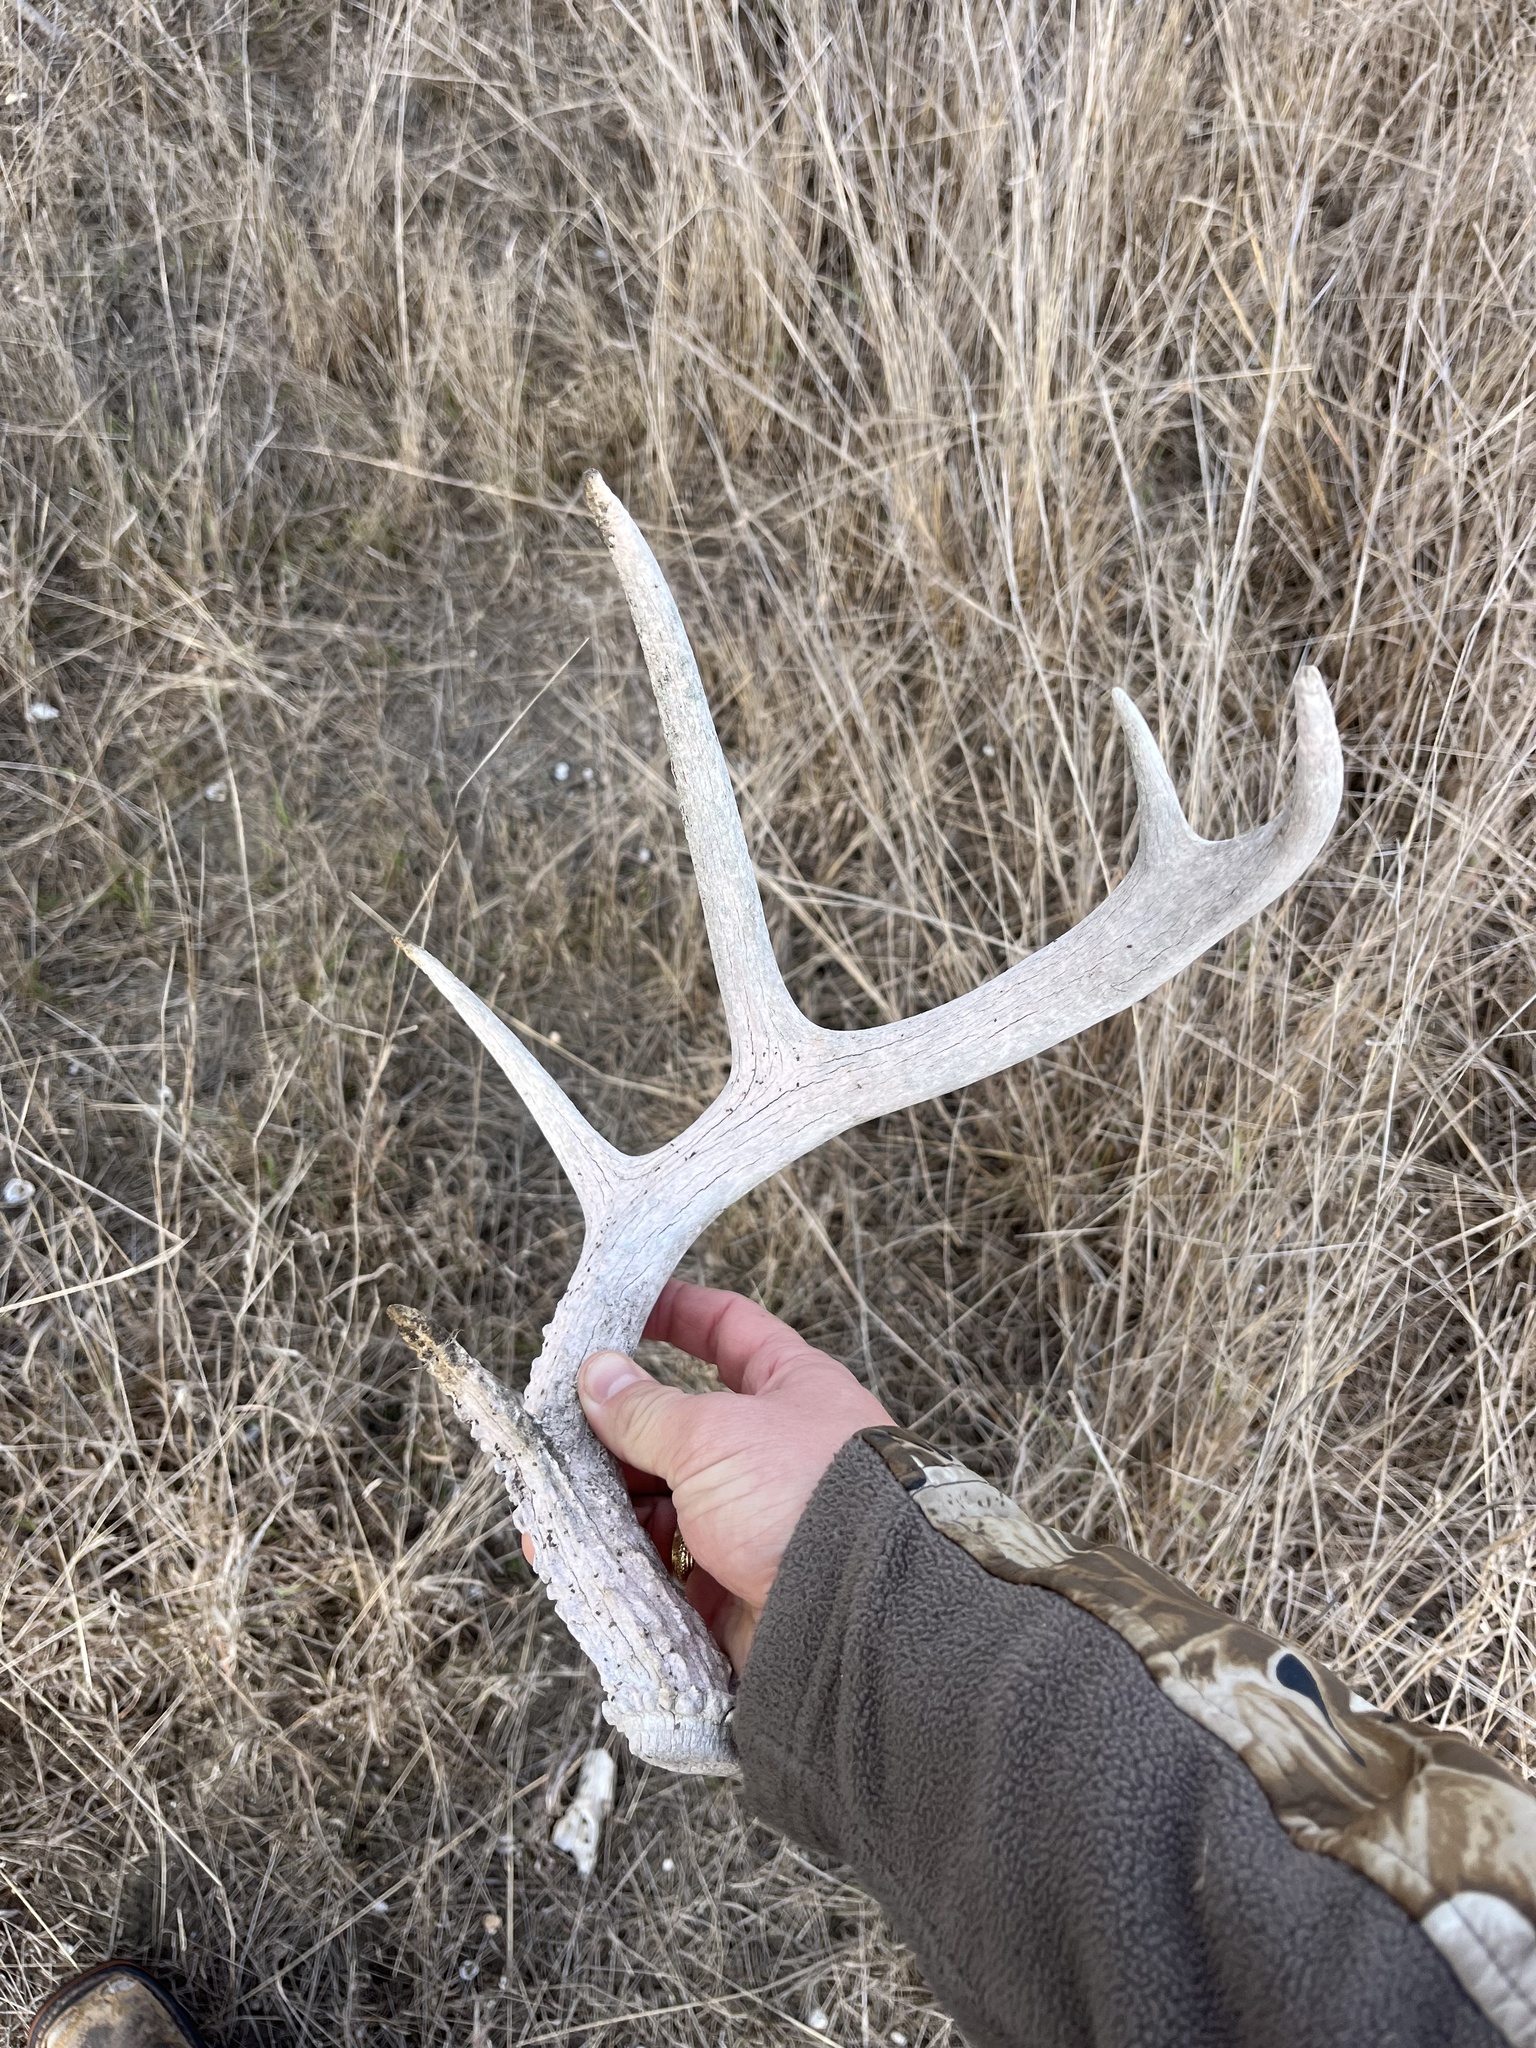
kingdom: Animalia
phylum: Chordata
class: Mammalia
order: Artiodactyla
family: Cervidae
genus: Odocoileus
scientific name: Odocoileus virginianus
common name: White-tailed deer
